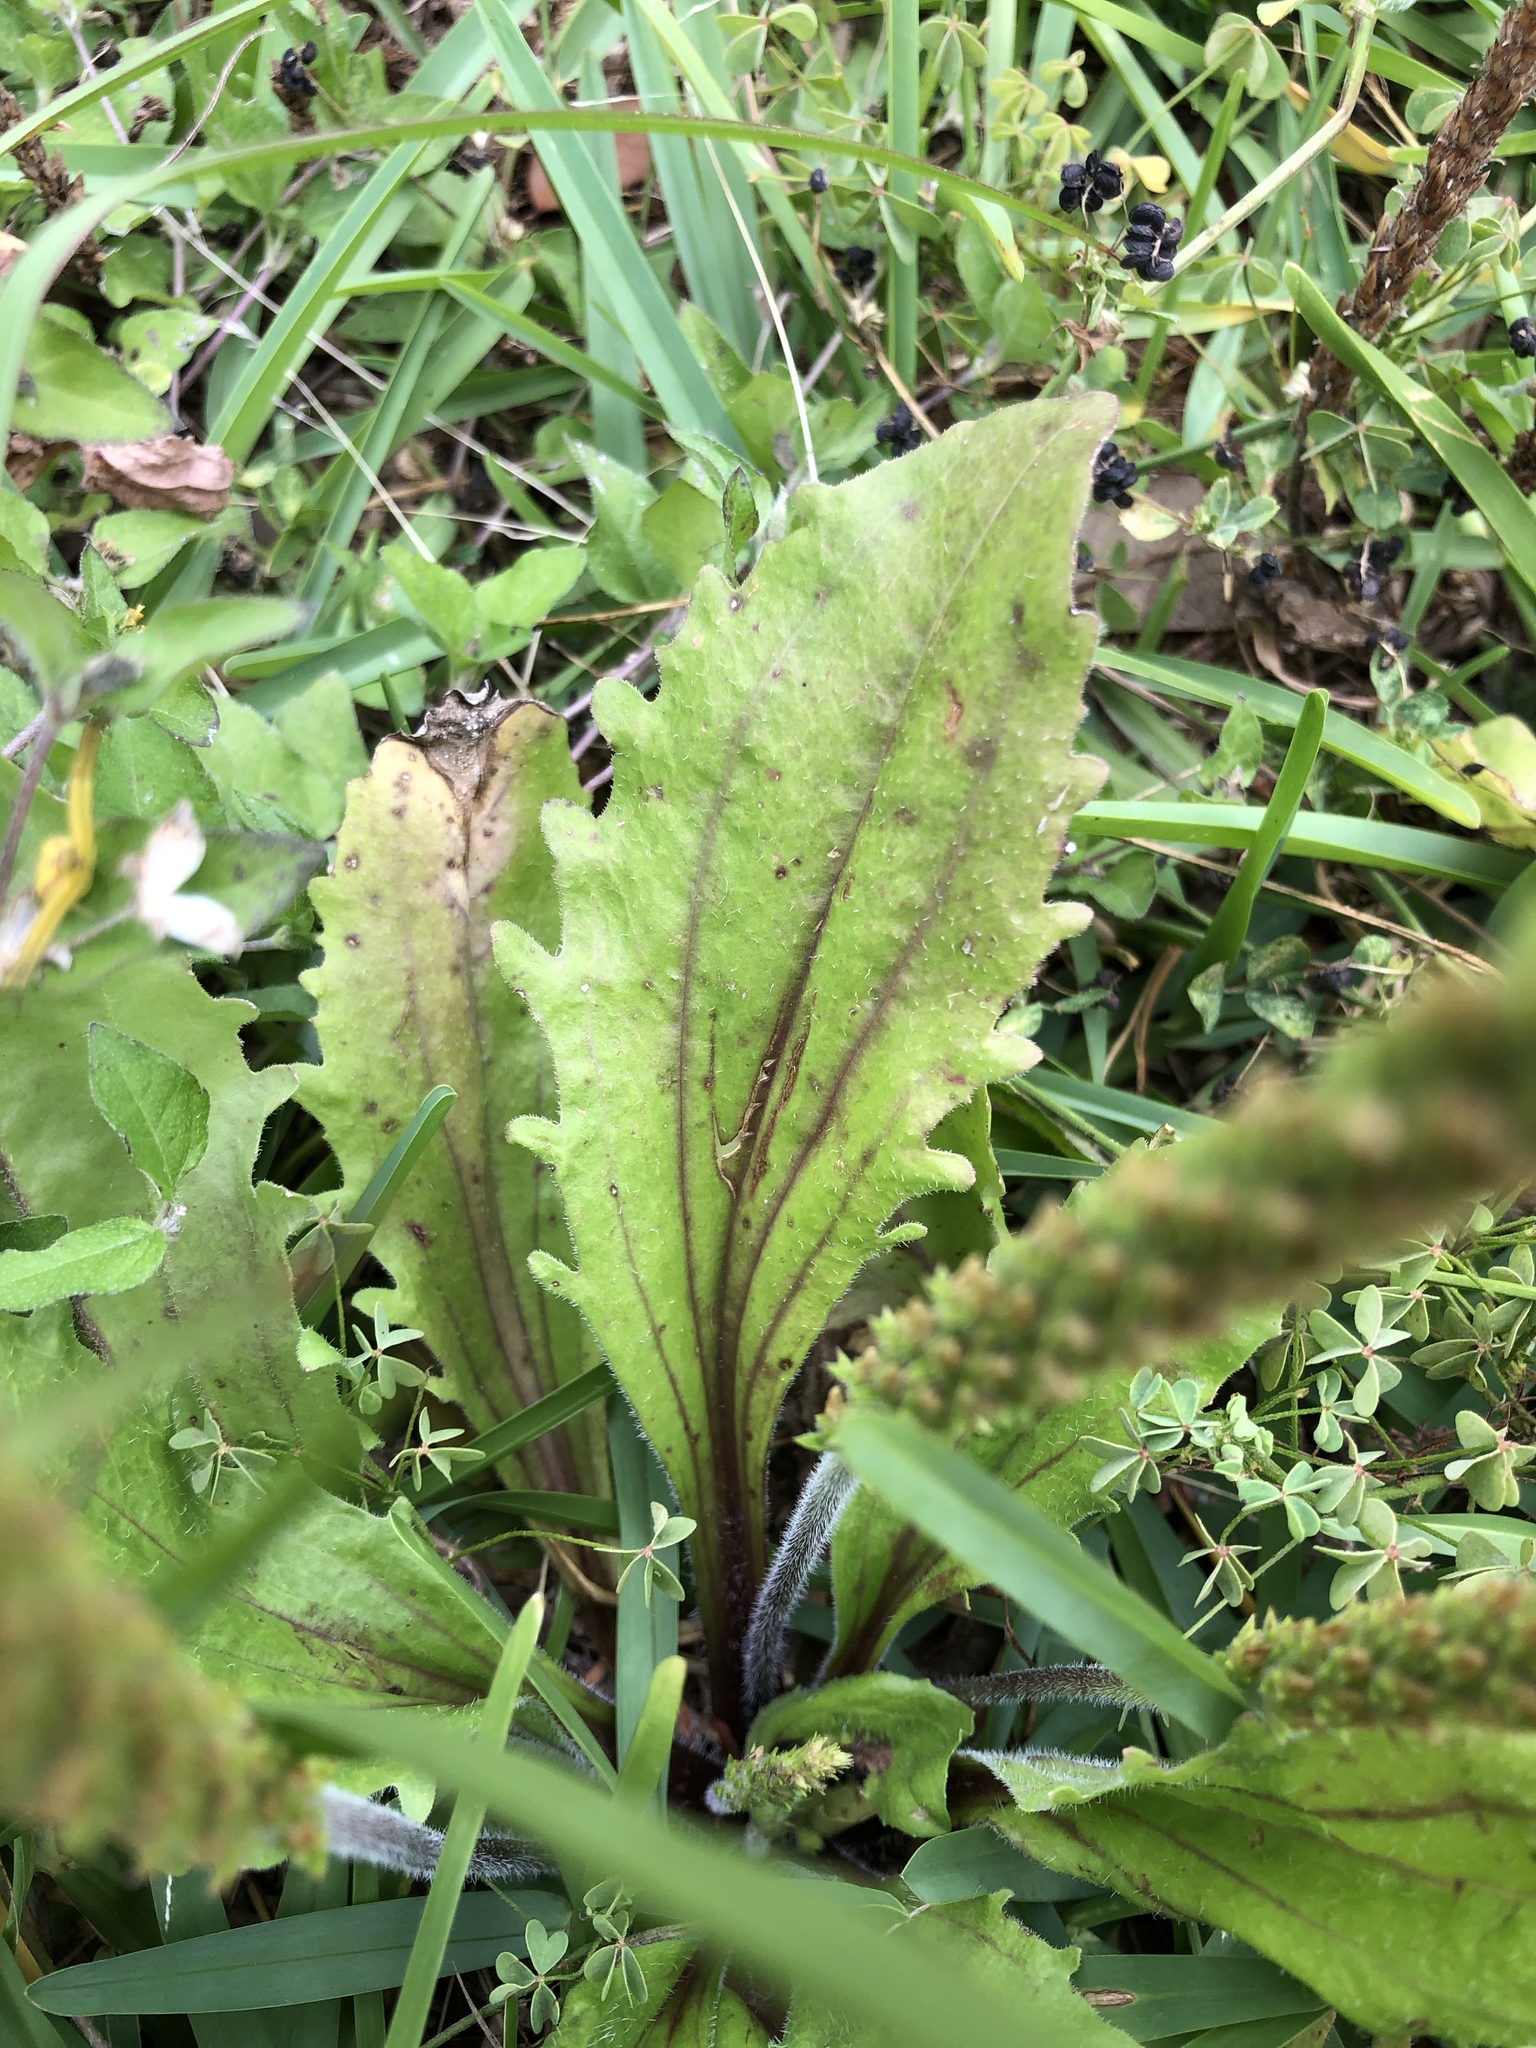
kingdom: Plantae
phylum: Tracheophyta
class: Magnoliopsida
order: Lamiales
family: Plantaginaceae
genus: Plantago
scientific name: Plantago virginica
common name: Hoary plantain
